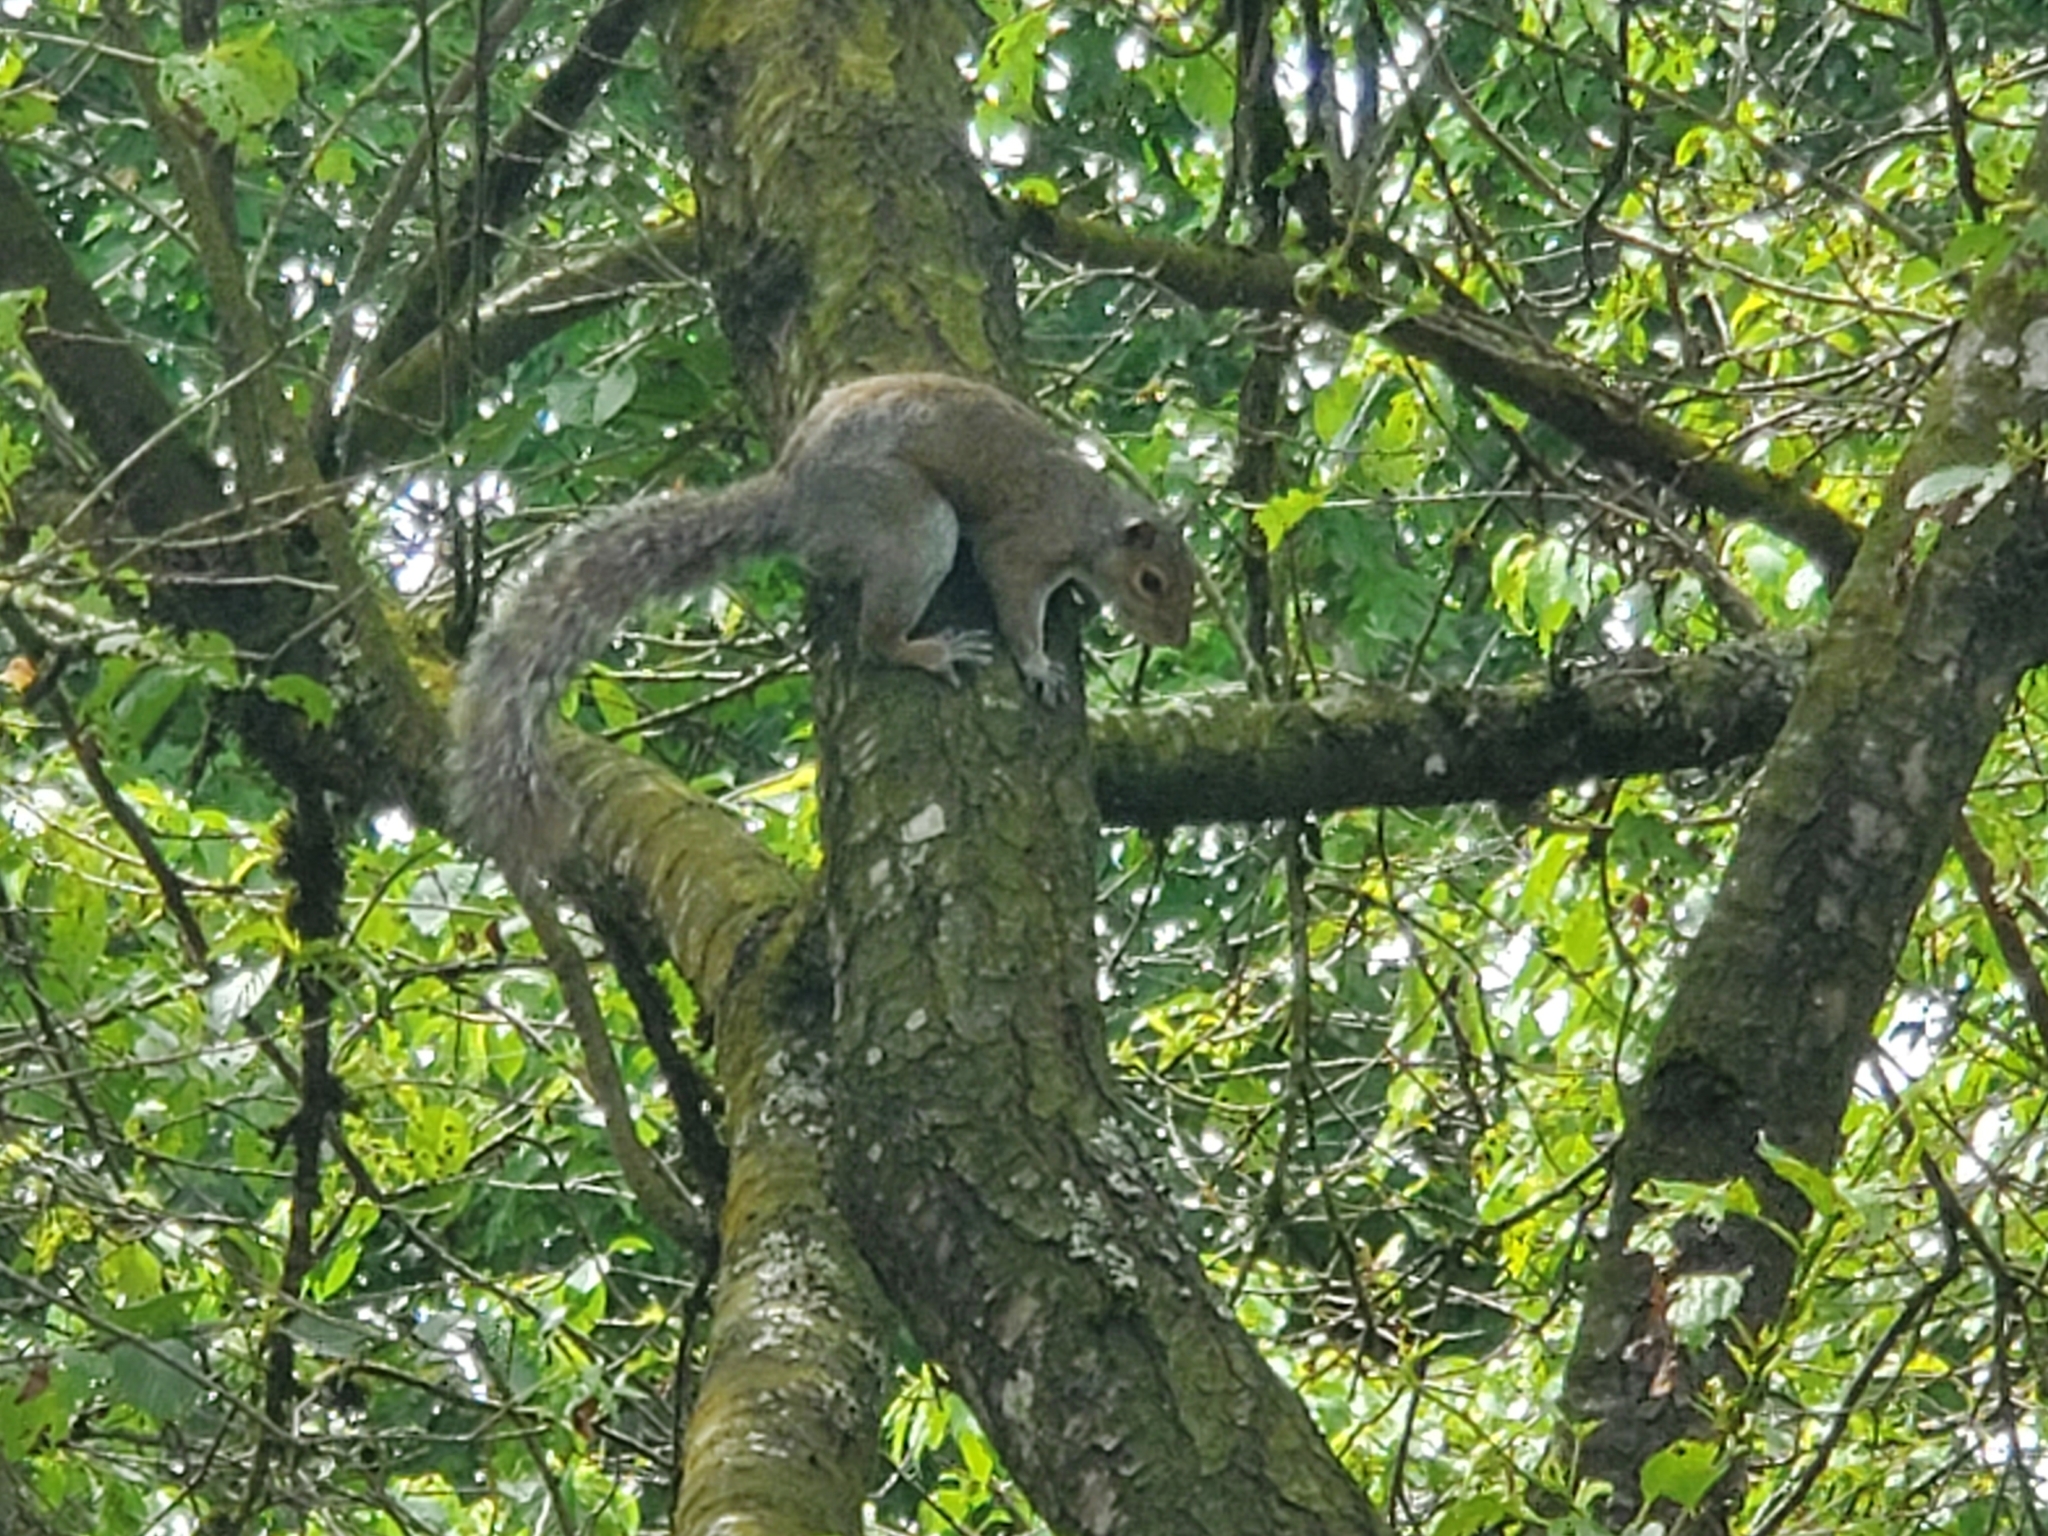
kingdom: Animalia
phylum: Chordata
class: Mammalia
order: Rodentia
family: Sciuridae
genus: Sciurus
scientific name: Sciurus carolinensis
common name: Eastern gray squirrel
